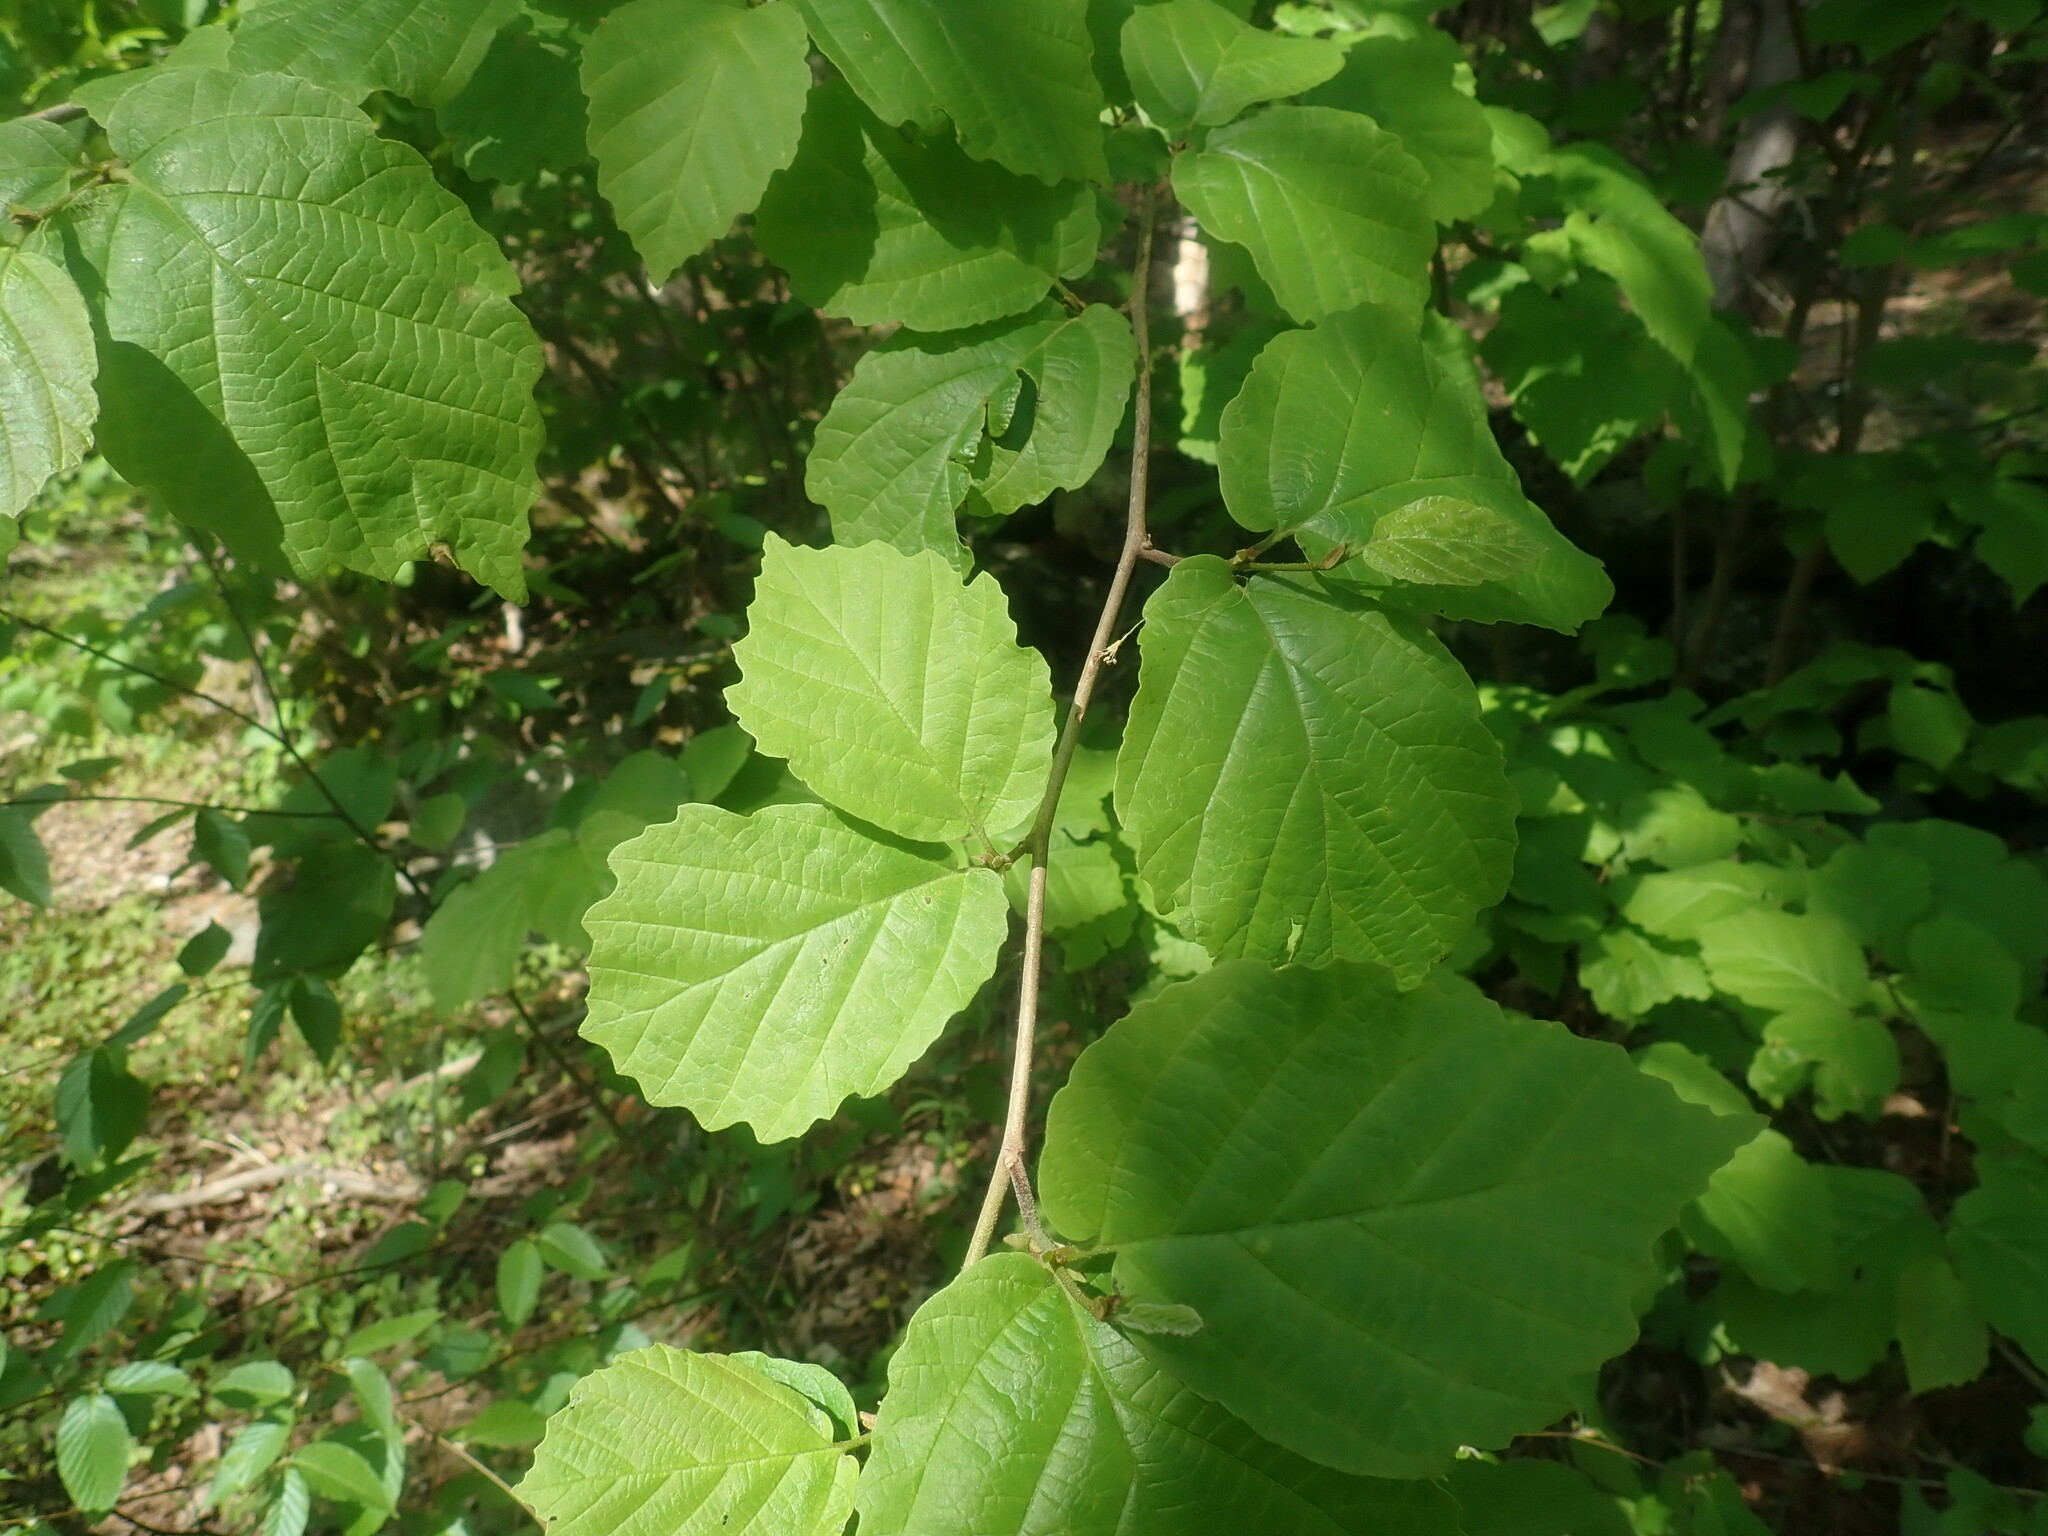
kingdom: Plantae
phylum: Tracheophyta
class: Magnoliopsida
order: Saxifragales
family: Hamamelidaceae
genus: Hamamelis
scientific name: Hamamelis virginiana
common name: Witch-hazel
